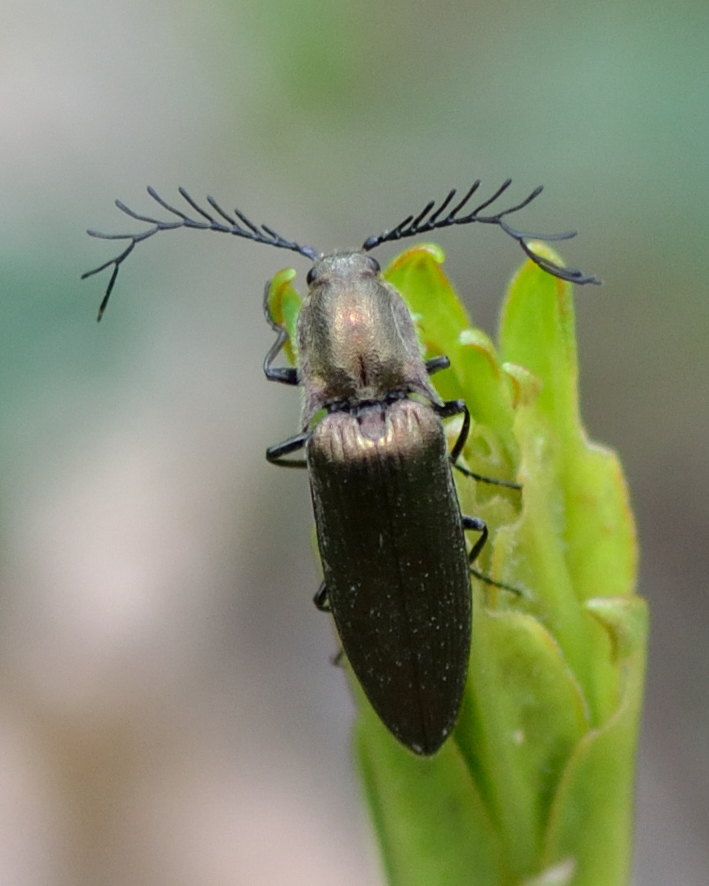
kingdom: Animalia
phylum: Arthropoda
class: Insecta
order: Coleoptera
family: Elateridae
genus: Ctenicera
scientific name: Ctenicera pectinicornis
